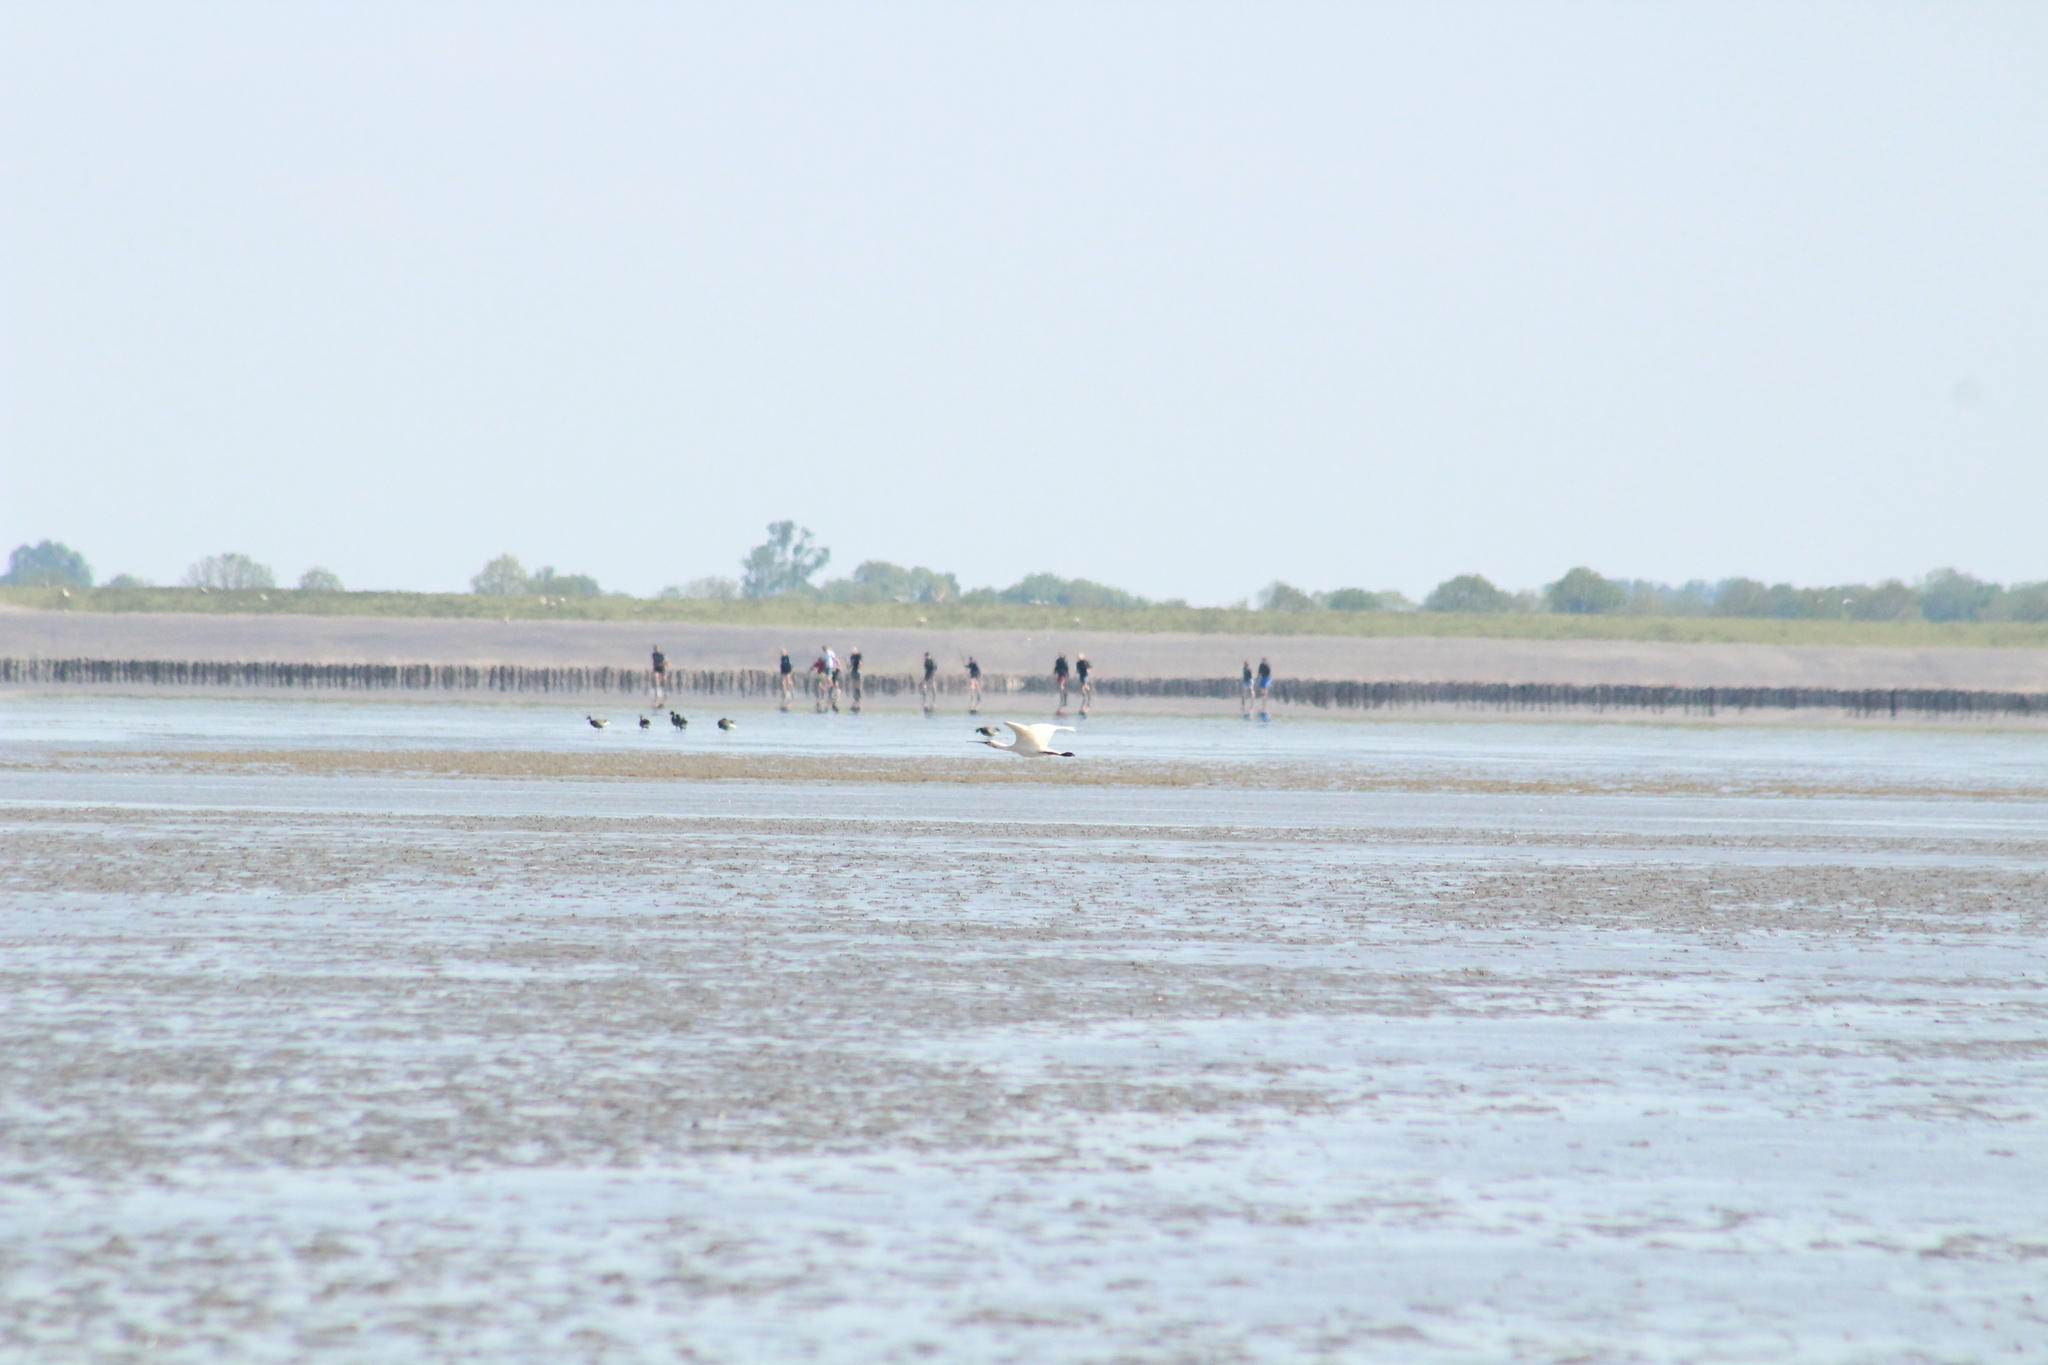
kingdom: Animalia
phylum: Chordata
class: Aves
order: Pelecaniformes
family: Threskiornithidae
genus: Platalea
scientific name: Platalea leucorodia
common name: Eurasian spoonbill
